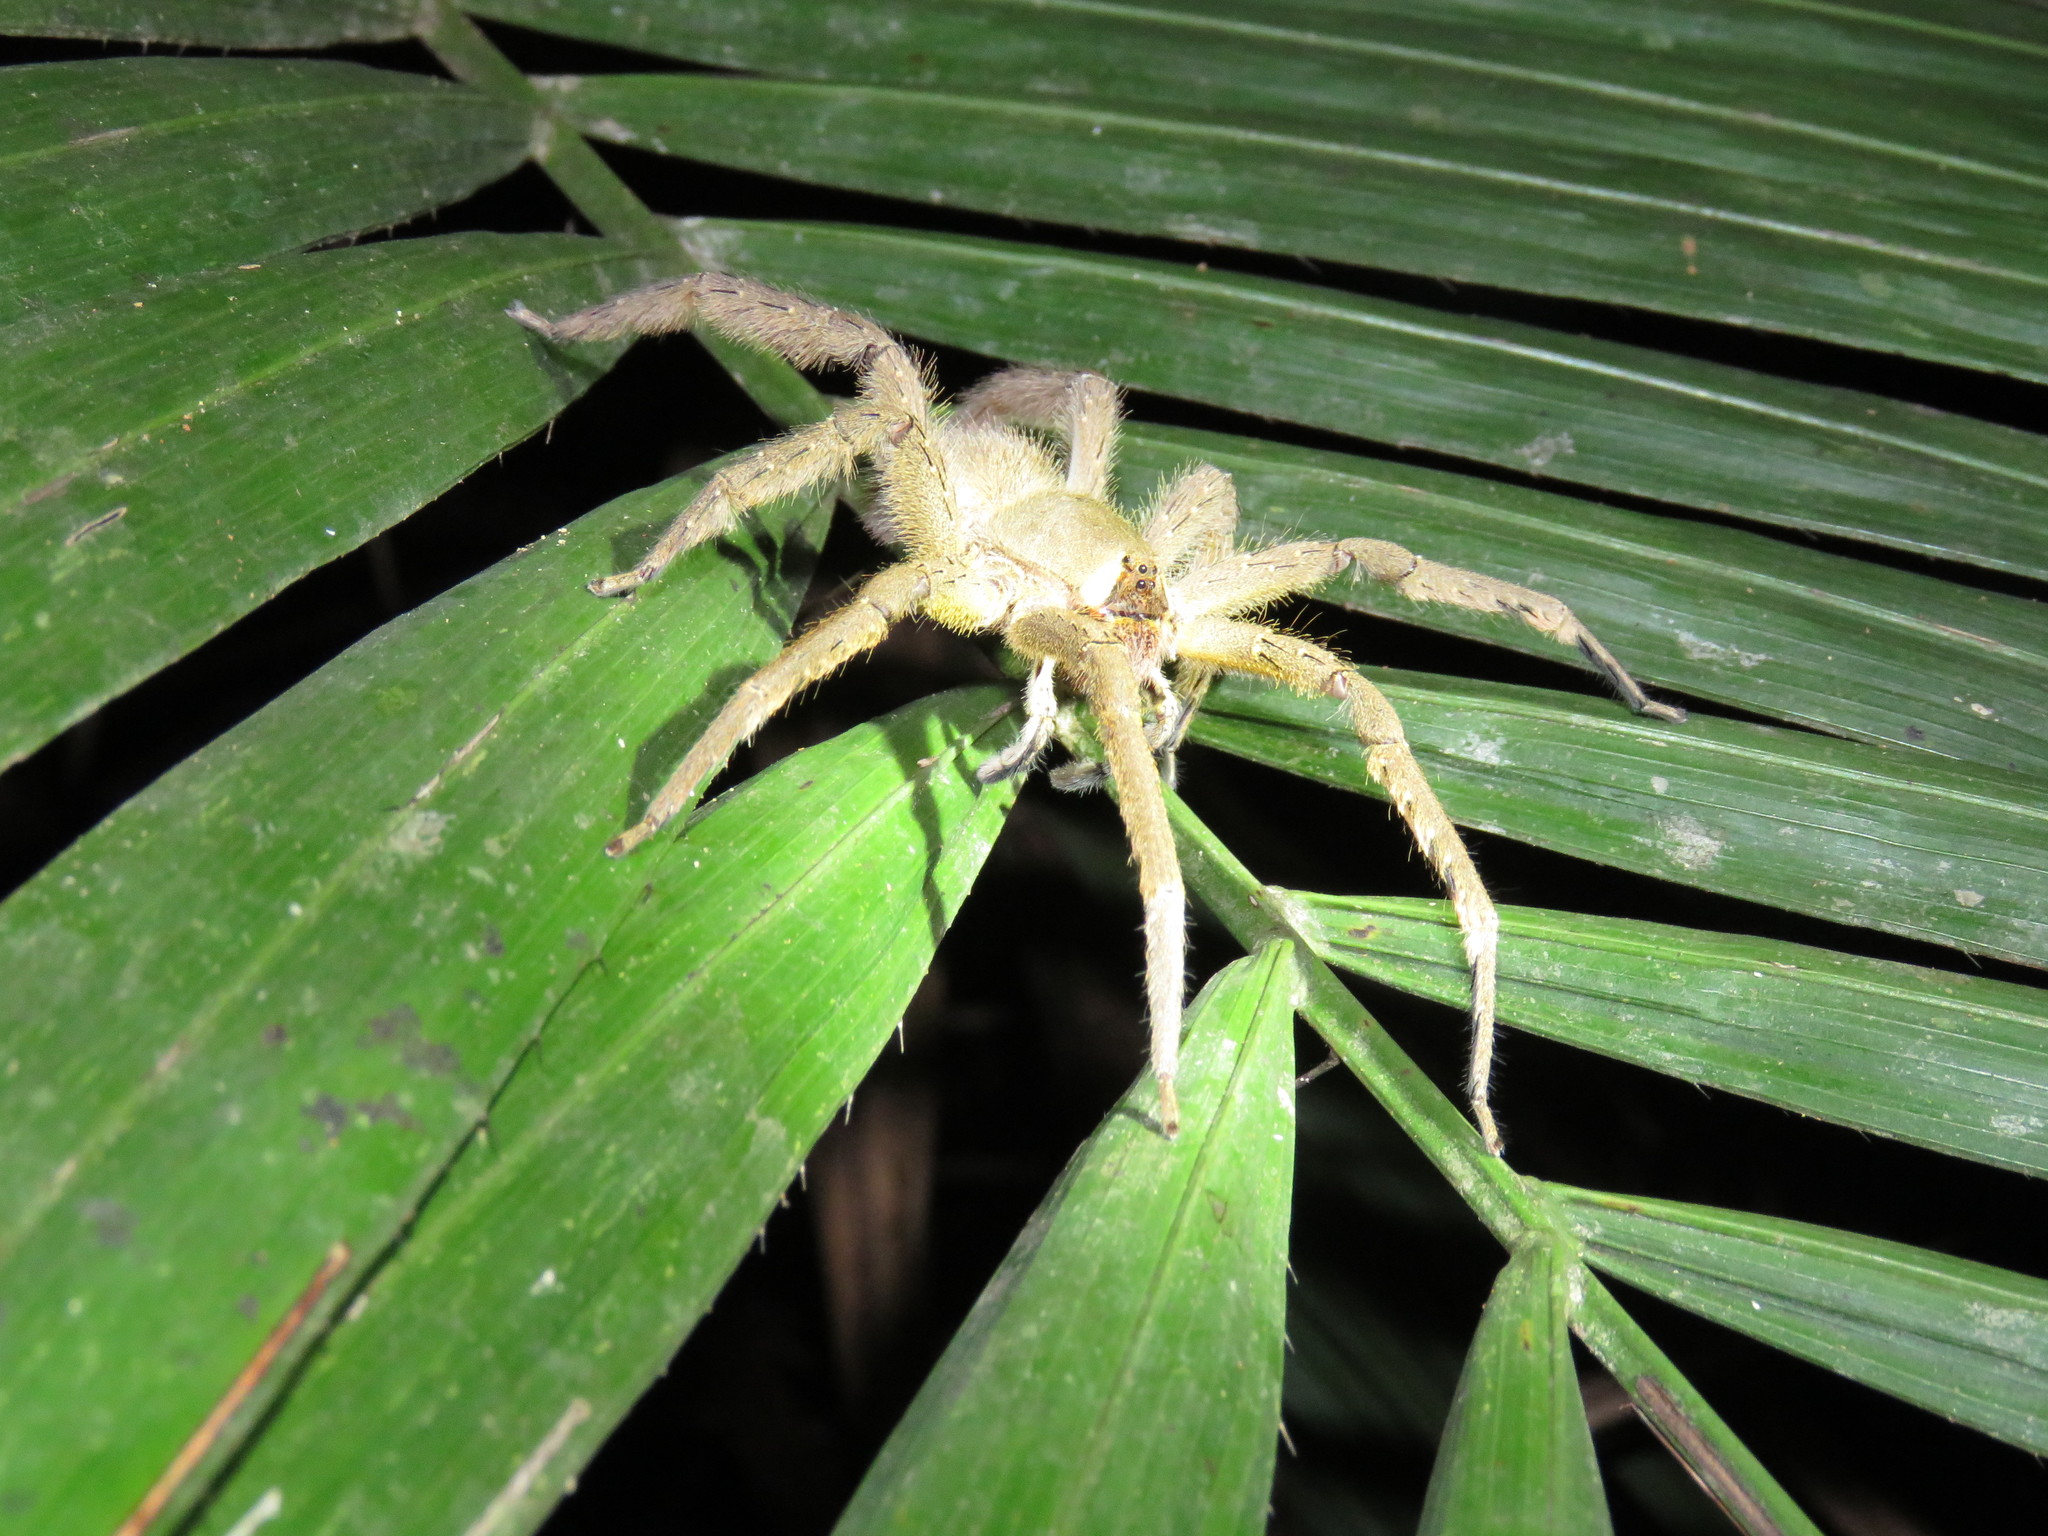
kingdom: Animalia
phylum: Arthropoda
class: Arachnida
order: Araneae
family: Ctenidae
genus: Phoneutria
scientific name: Phoneutria boliviensis
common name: Wandering spiders
